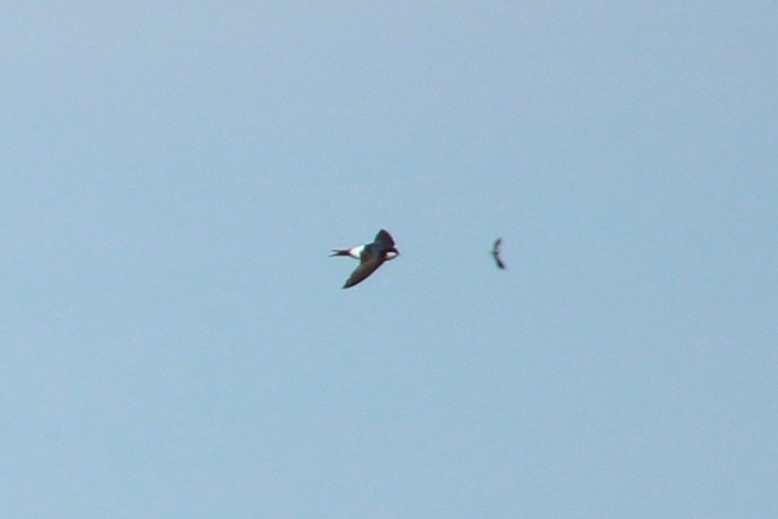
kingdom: Animalia
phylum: Chordata
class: Aves
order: Passeriformes
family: Hirundinidae
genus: Delichon
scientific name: Delichon urbicum
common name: Common house martin
